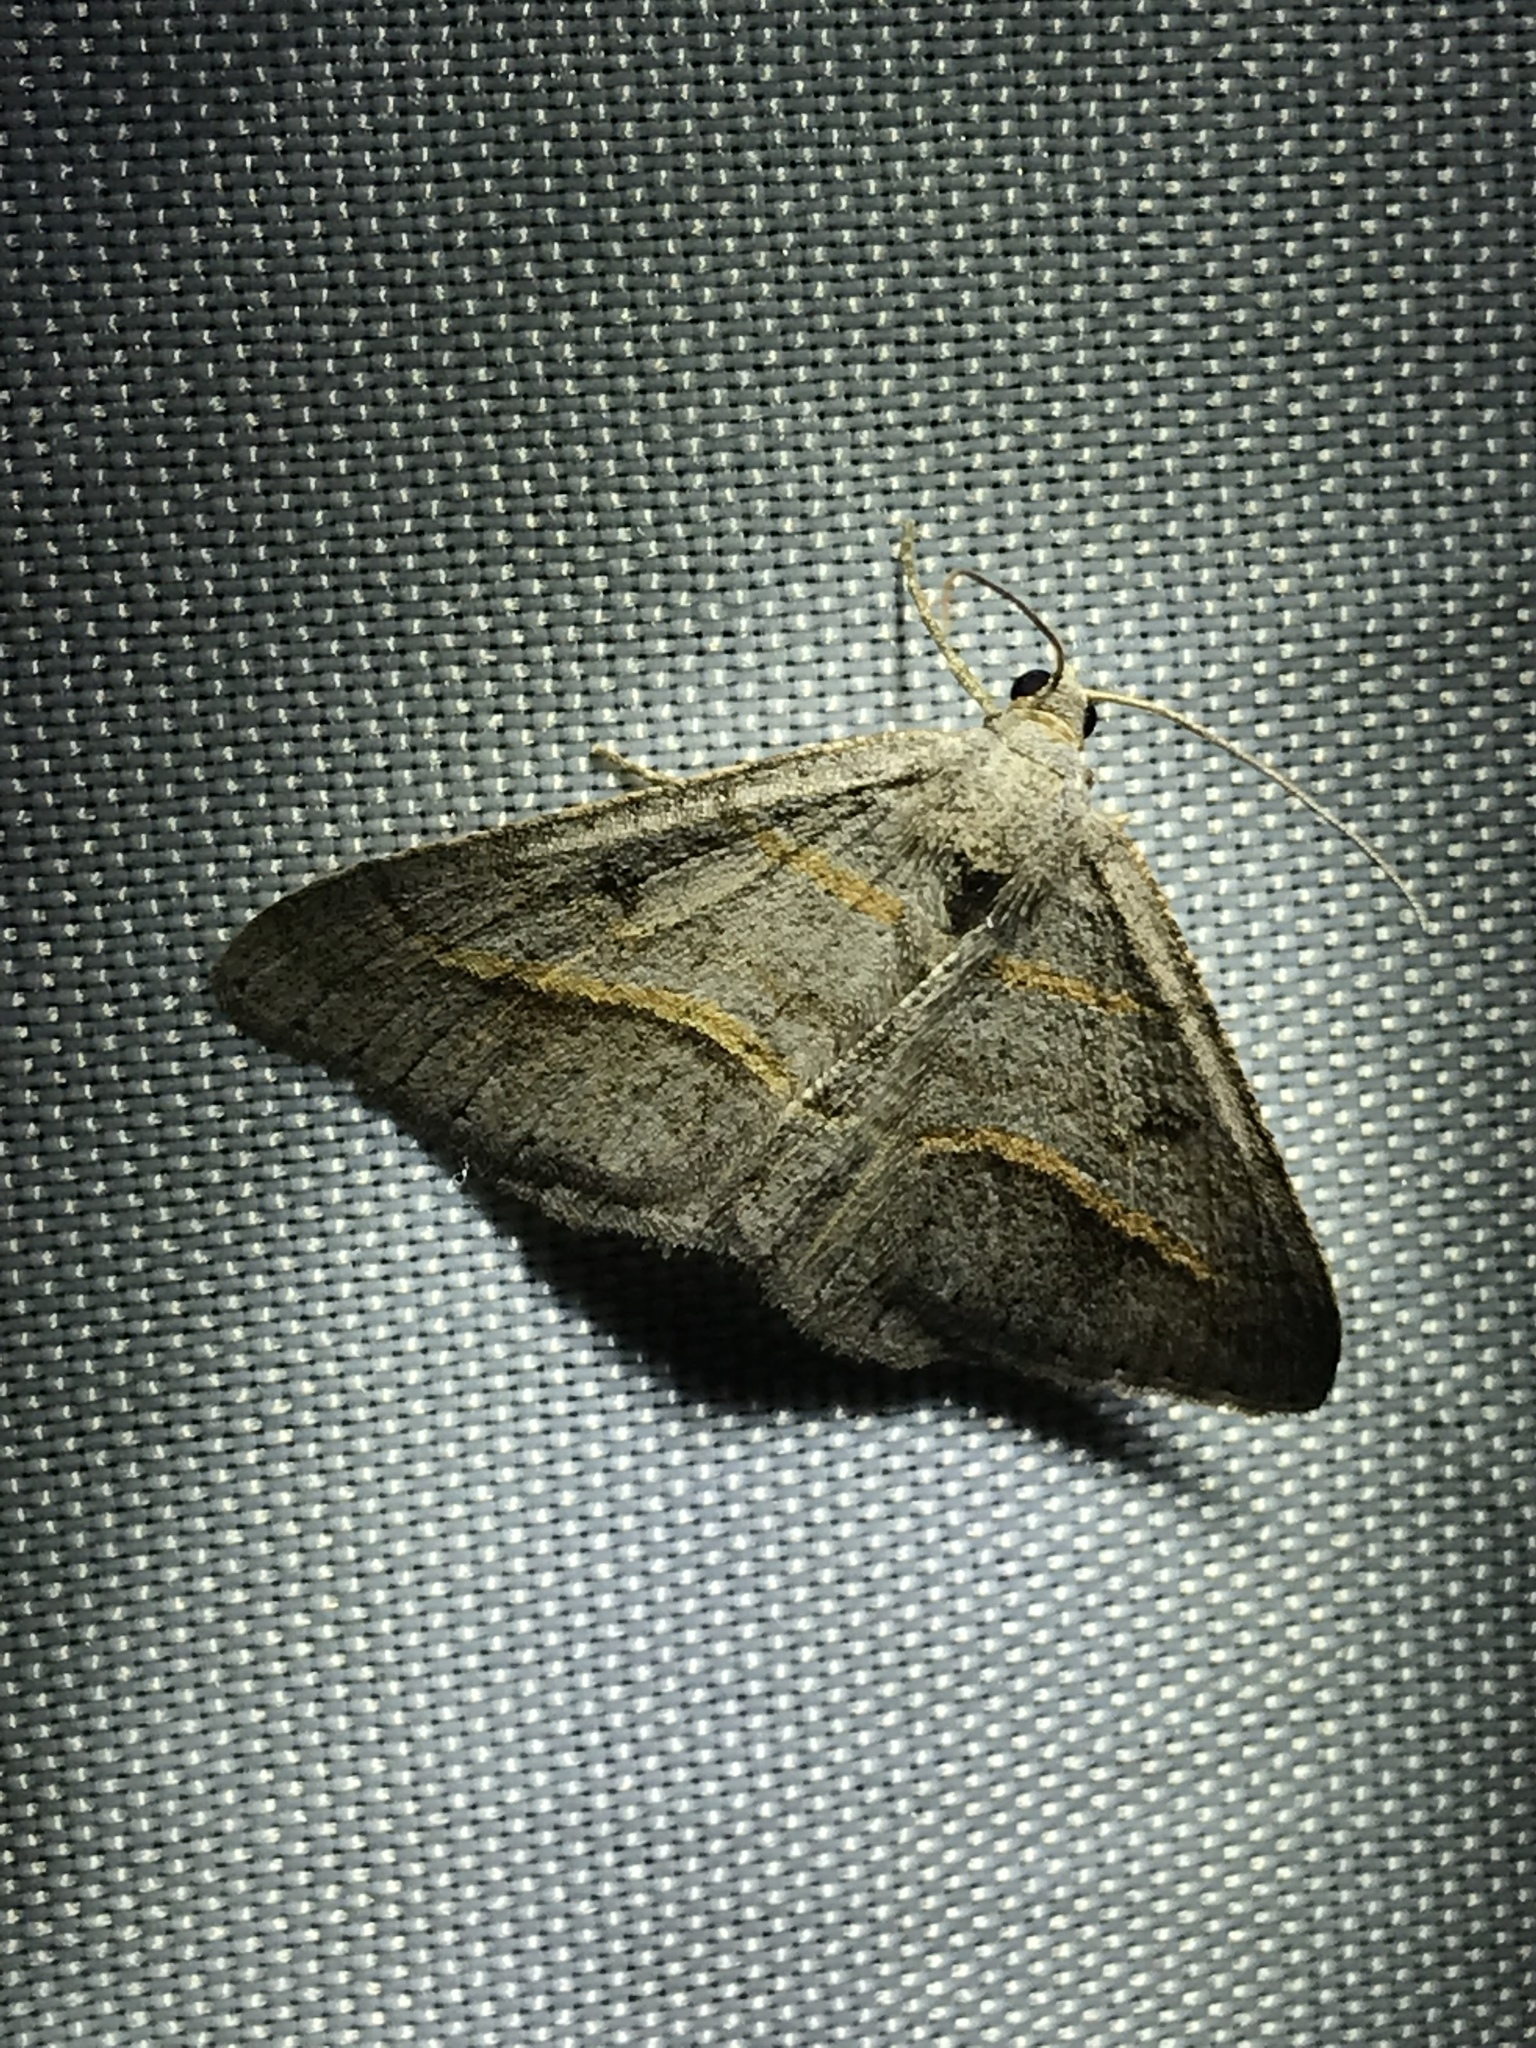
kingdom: Animalia
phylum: Arthropoda
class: Insecta
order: Lepidoptera
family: Geometridae
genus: Digrammia
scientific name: Digrammia neptaria
